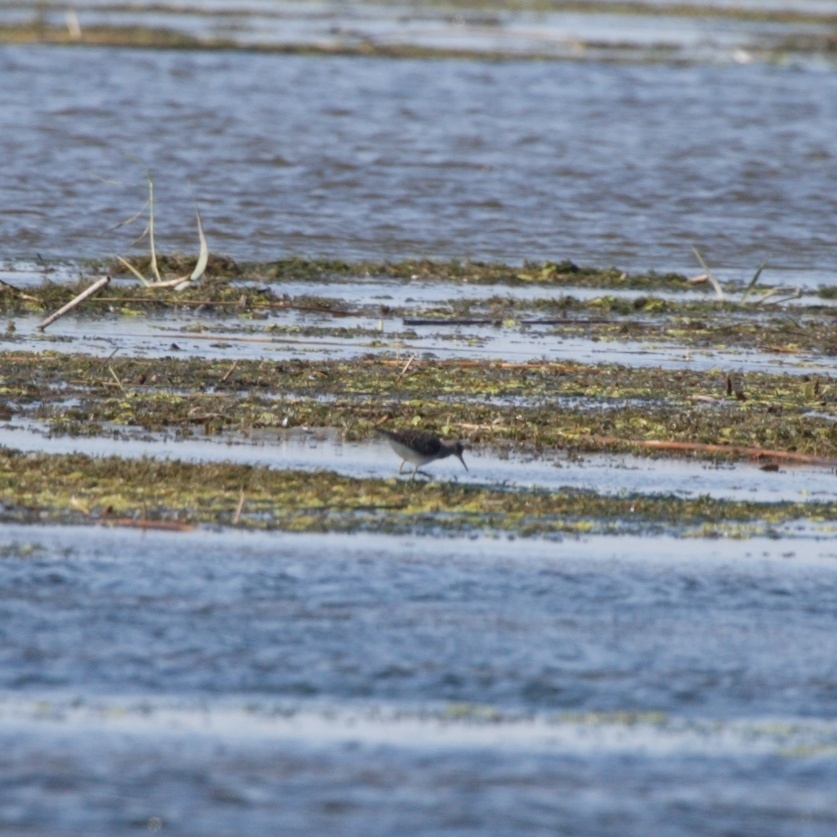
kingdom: Animalia
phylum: Chordata
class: Aves
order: Charadriiformes
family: Scolopacidae
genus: Tringa
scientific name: Tringa glareola
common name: Wood sandpiper
